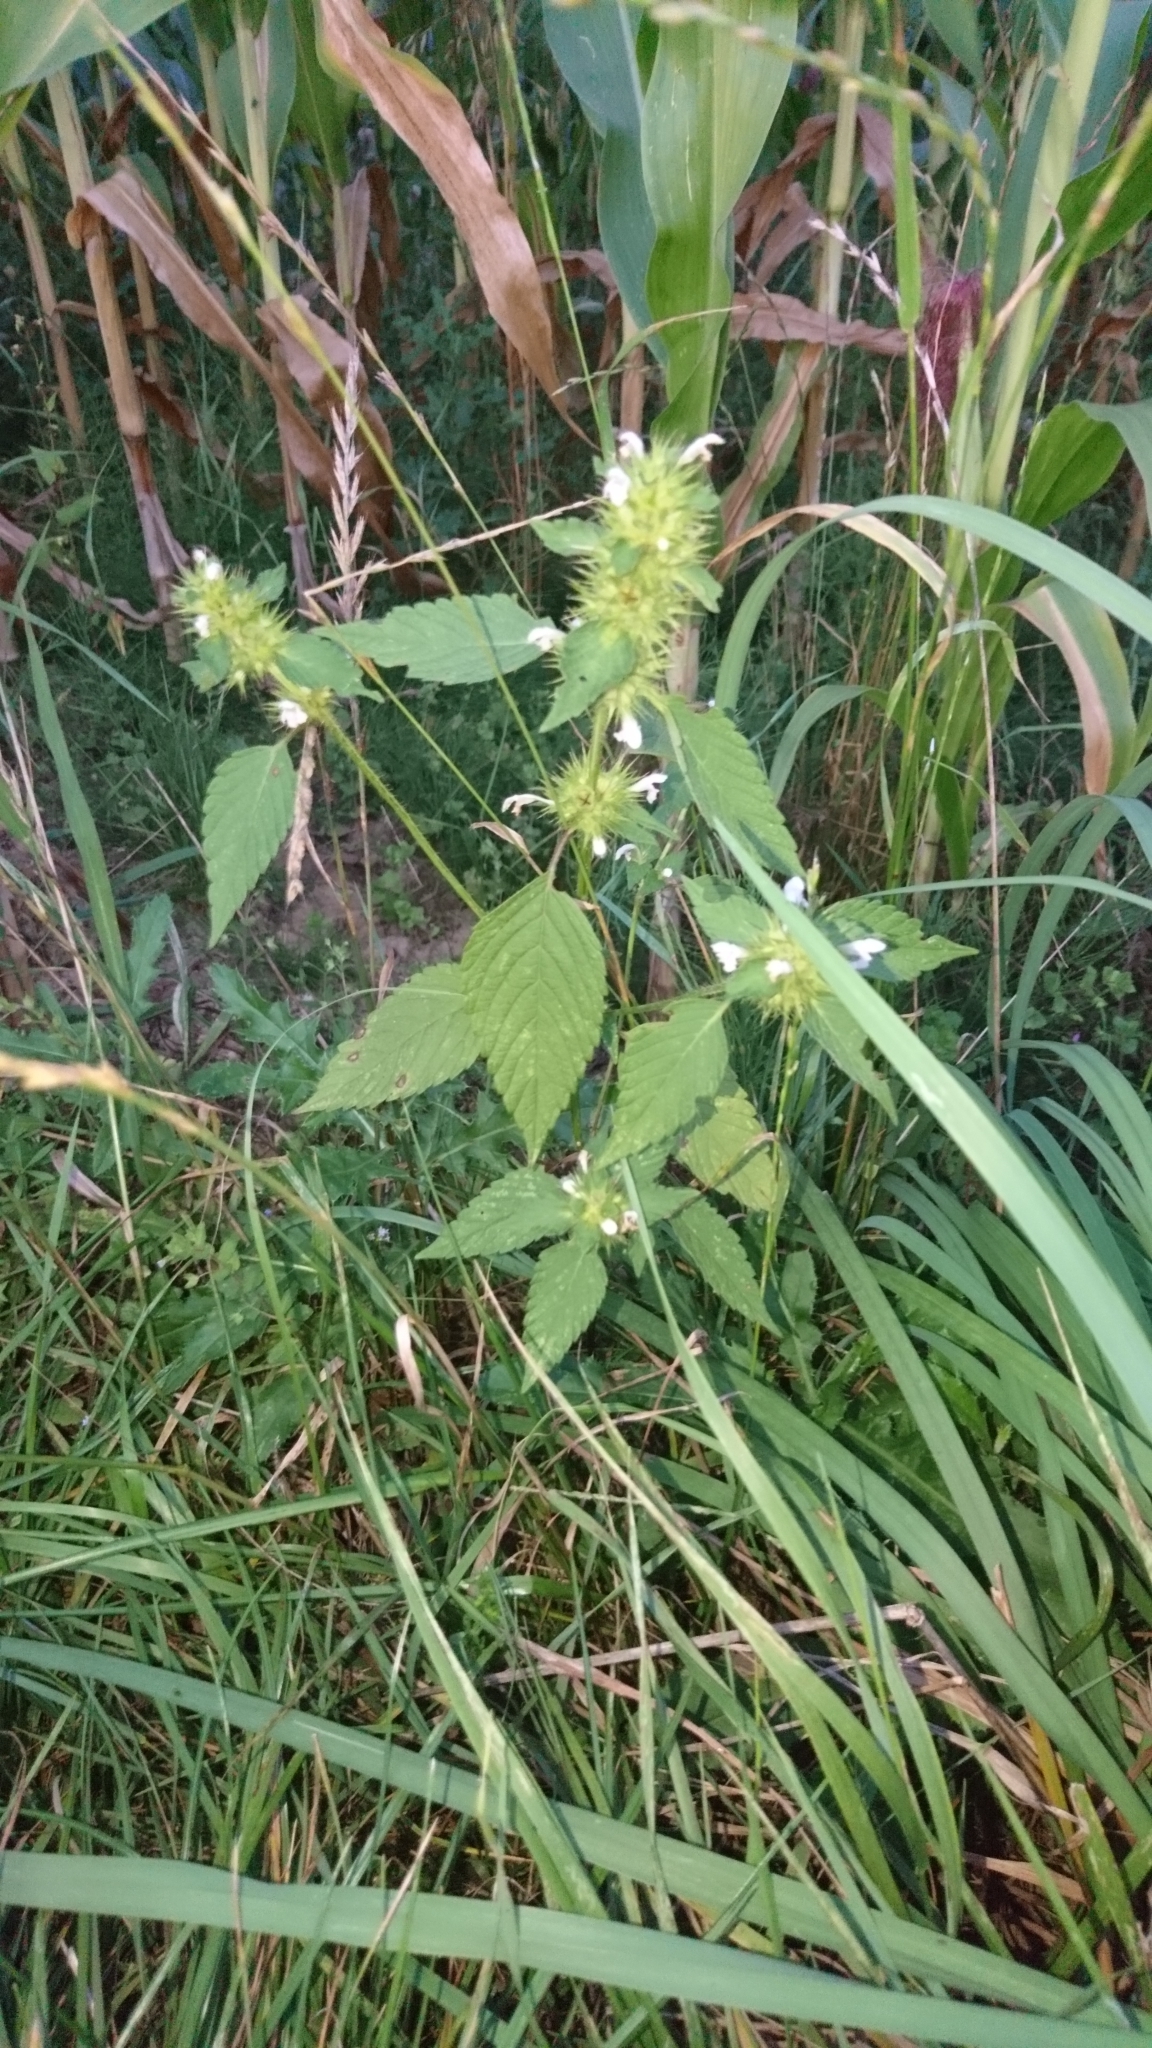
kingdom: Plantae
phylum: Tracheophyta
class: Magnoliopsida
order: Lamiales
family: Lamiaceae
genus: Galeopsis
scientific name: Galeopsis tetrahit
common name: Common hemp-nettle
